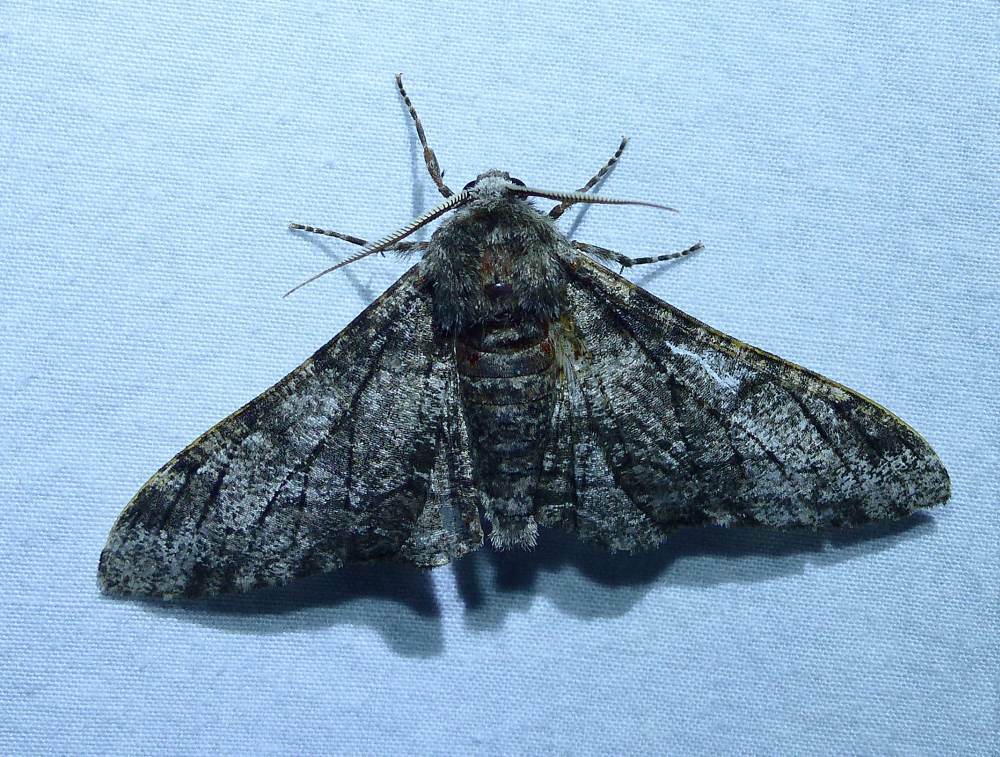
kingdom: Animalia
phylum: Arthropoda
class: Insecta
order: Lepidoptera
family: Geometridae
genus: Biston
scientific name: Biston betularia
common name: Peppered moth
